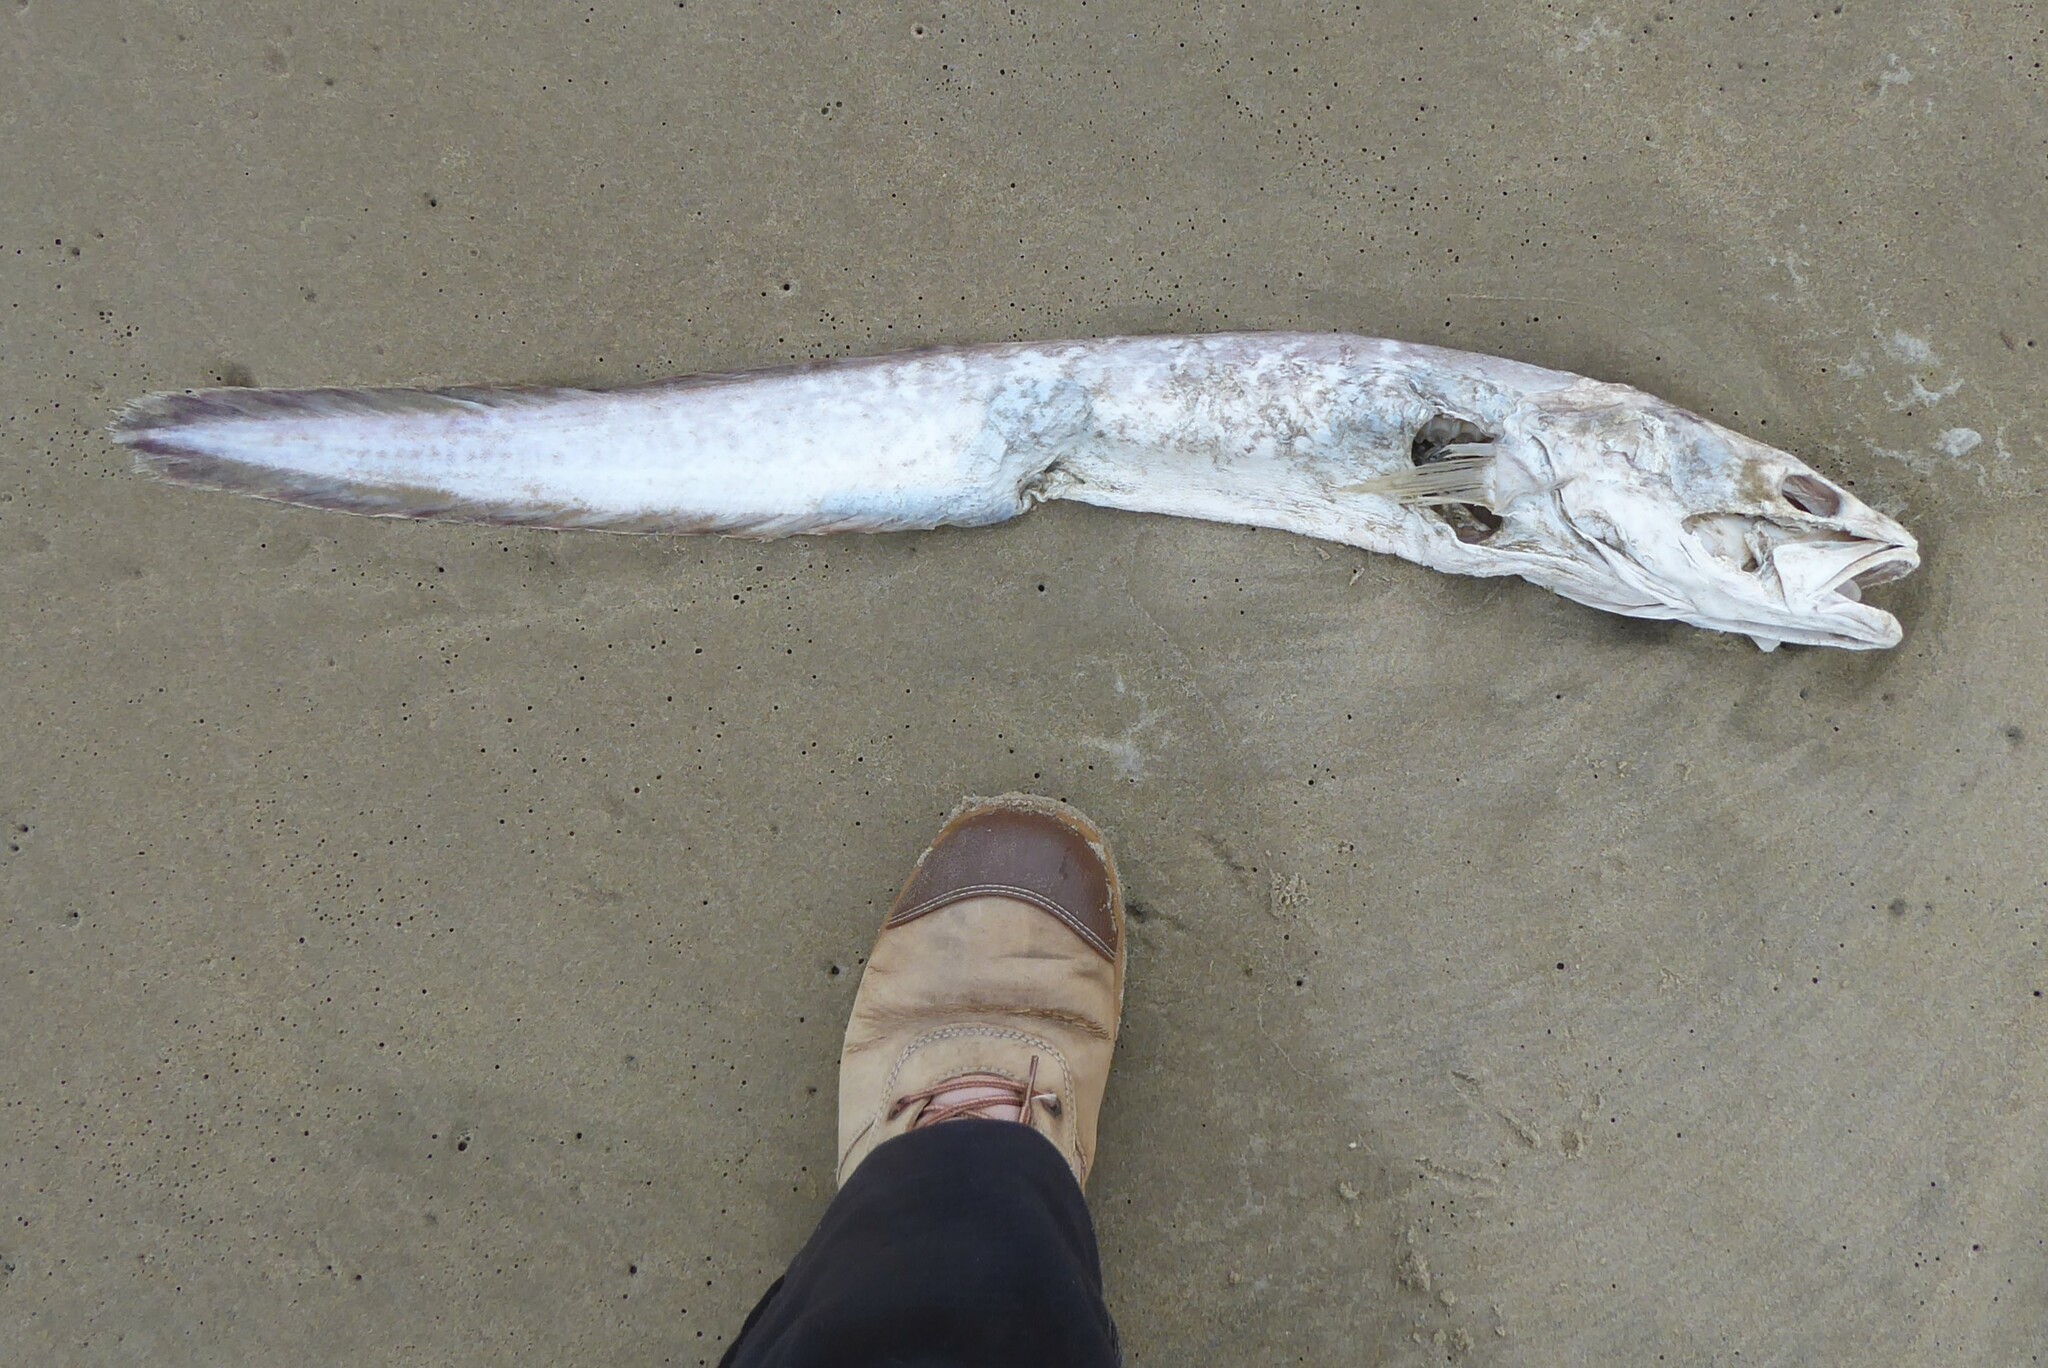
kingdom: Animalia
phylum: Chordata
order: Ophidiiformes
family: Ophidiidae
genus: Genypterus
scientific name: Genypterus blacodes
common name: Kingclip
